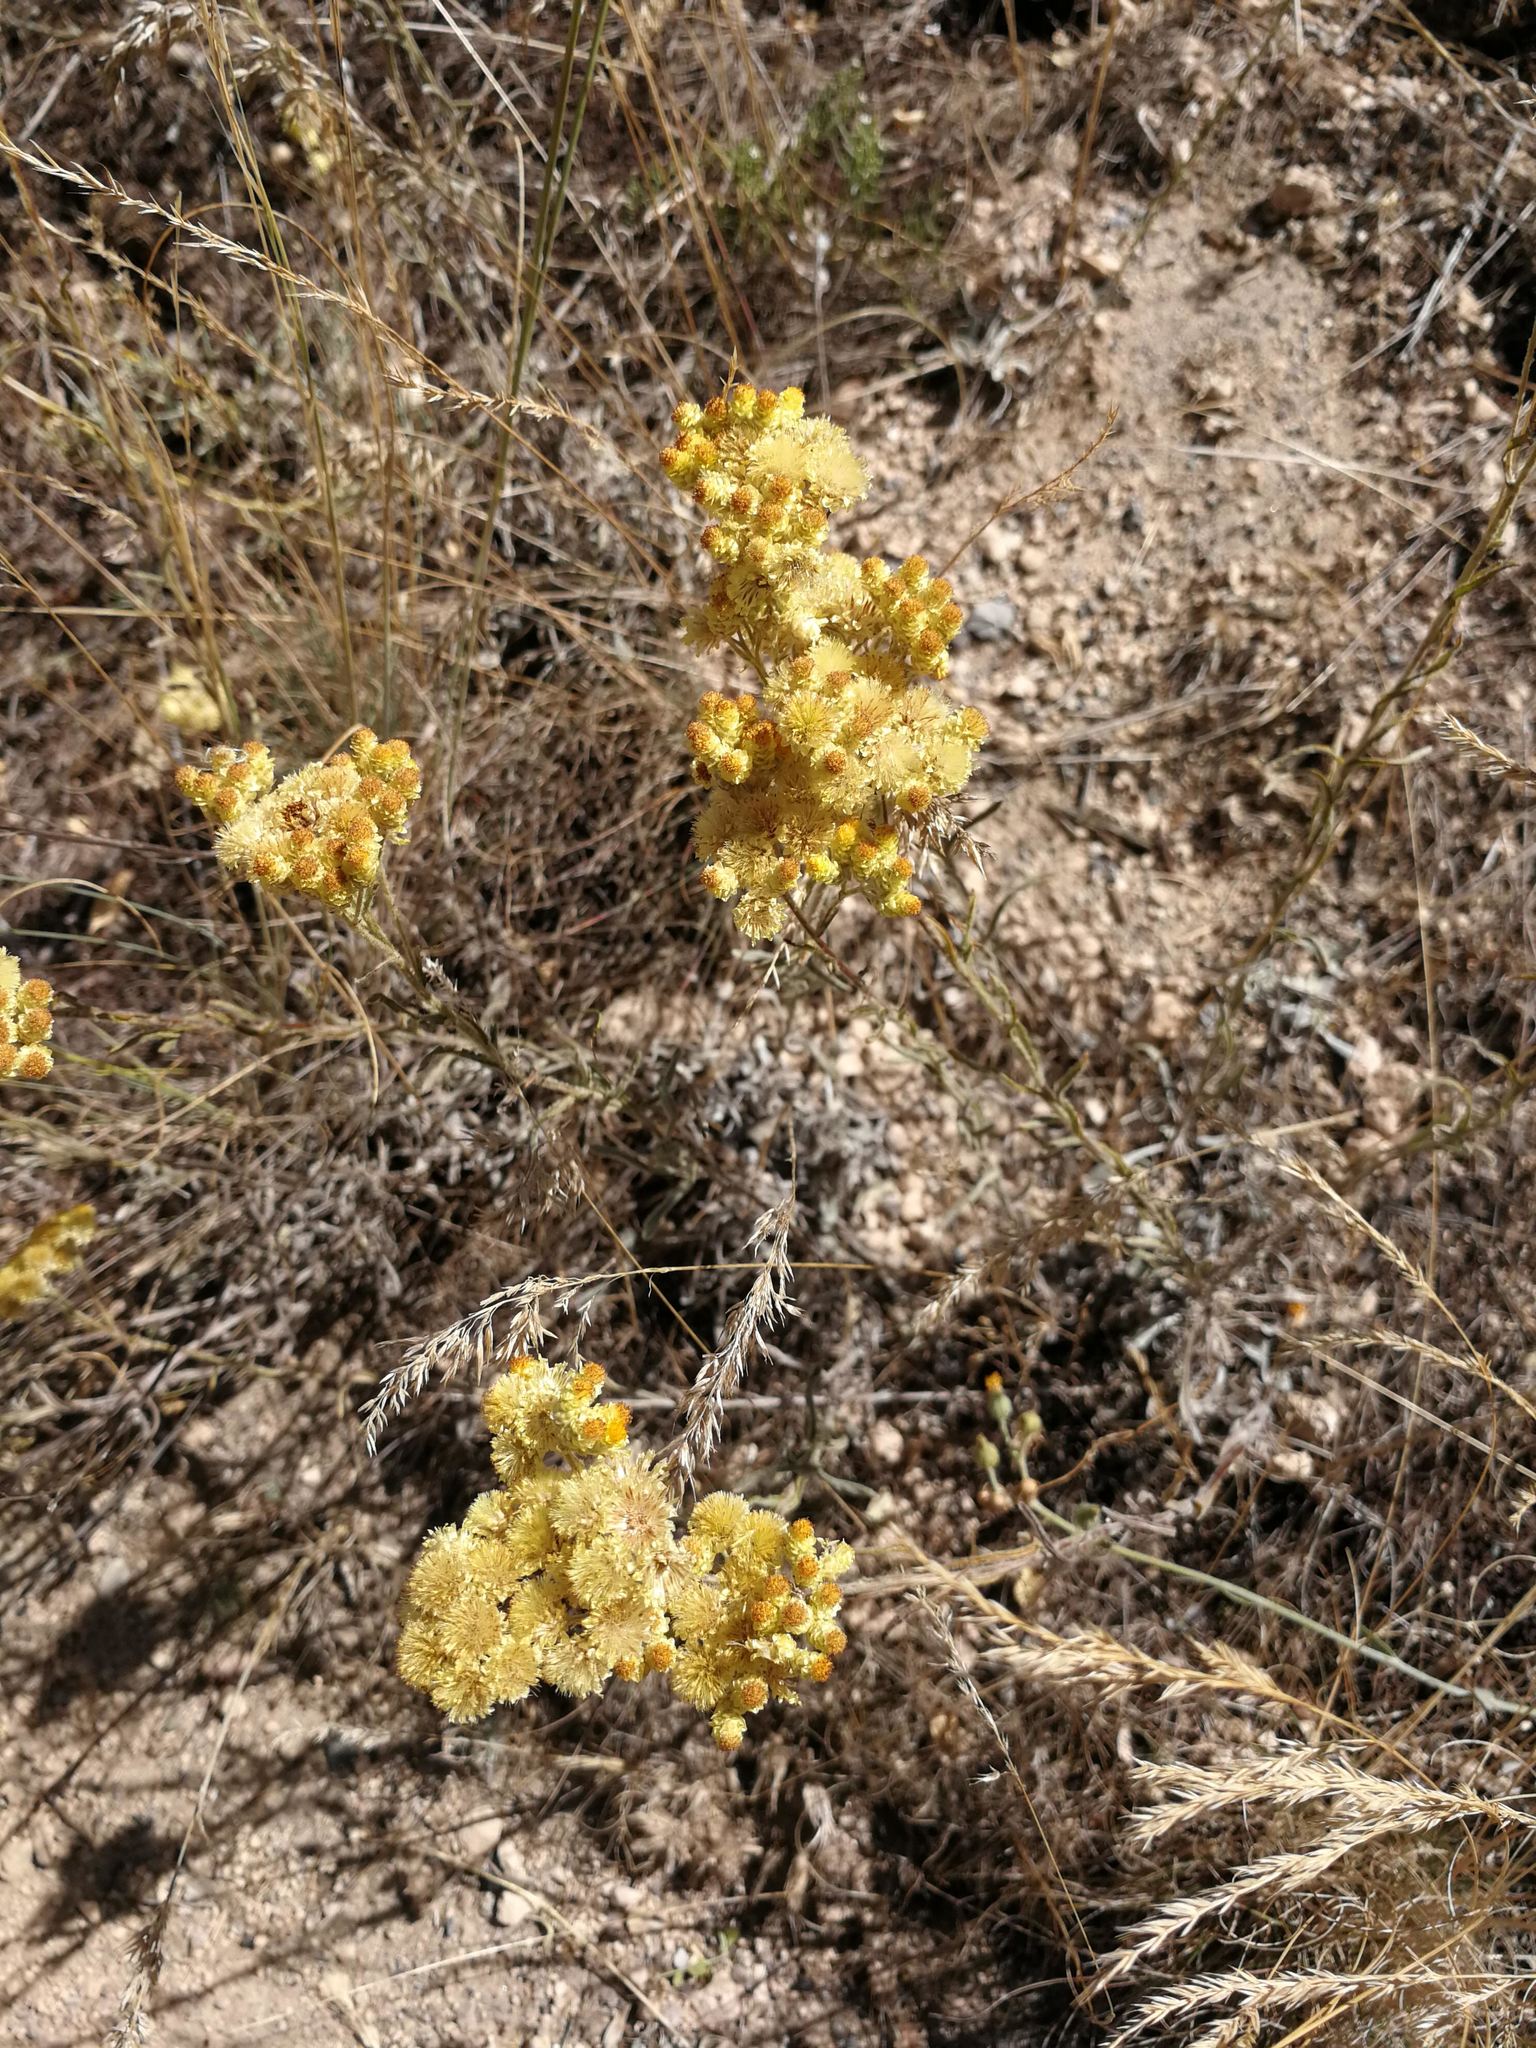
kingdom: Plantae
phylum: Tracheophyta
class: Magnoliopsida
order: Asterales
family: Asteraceae
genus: Helichrysum
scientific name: Helichrysum arenarium
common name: Strawflower
